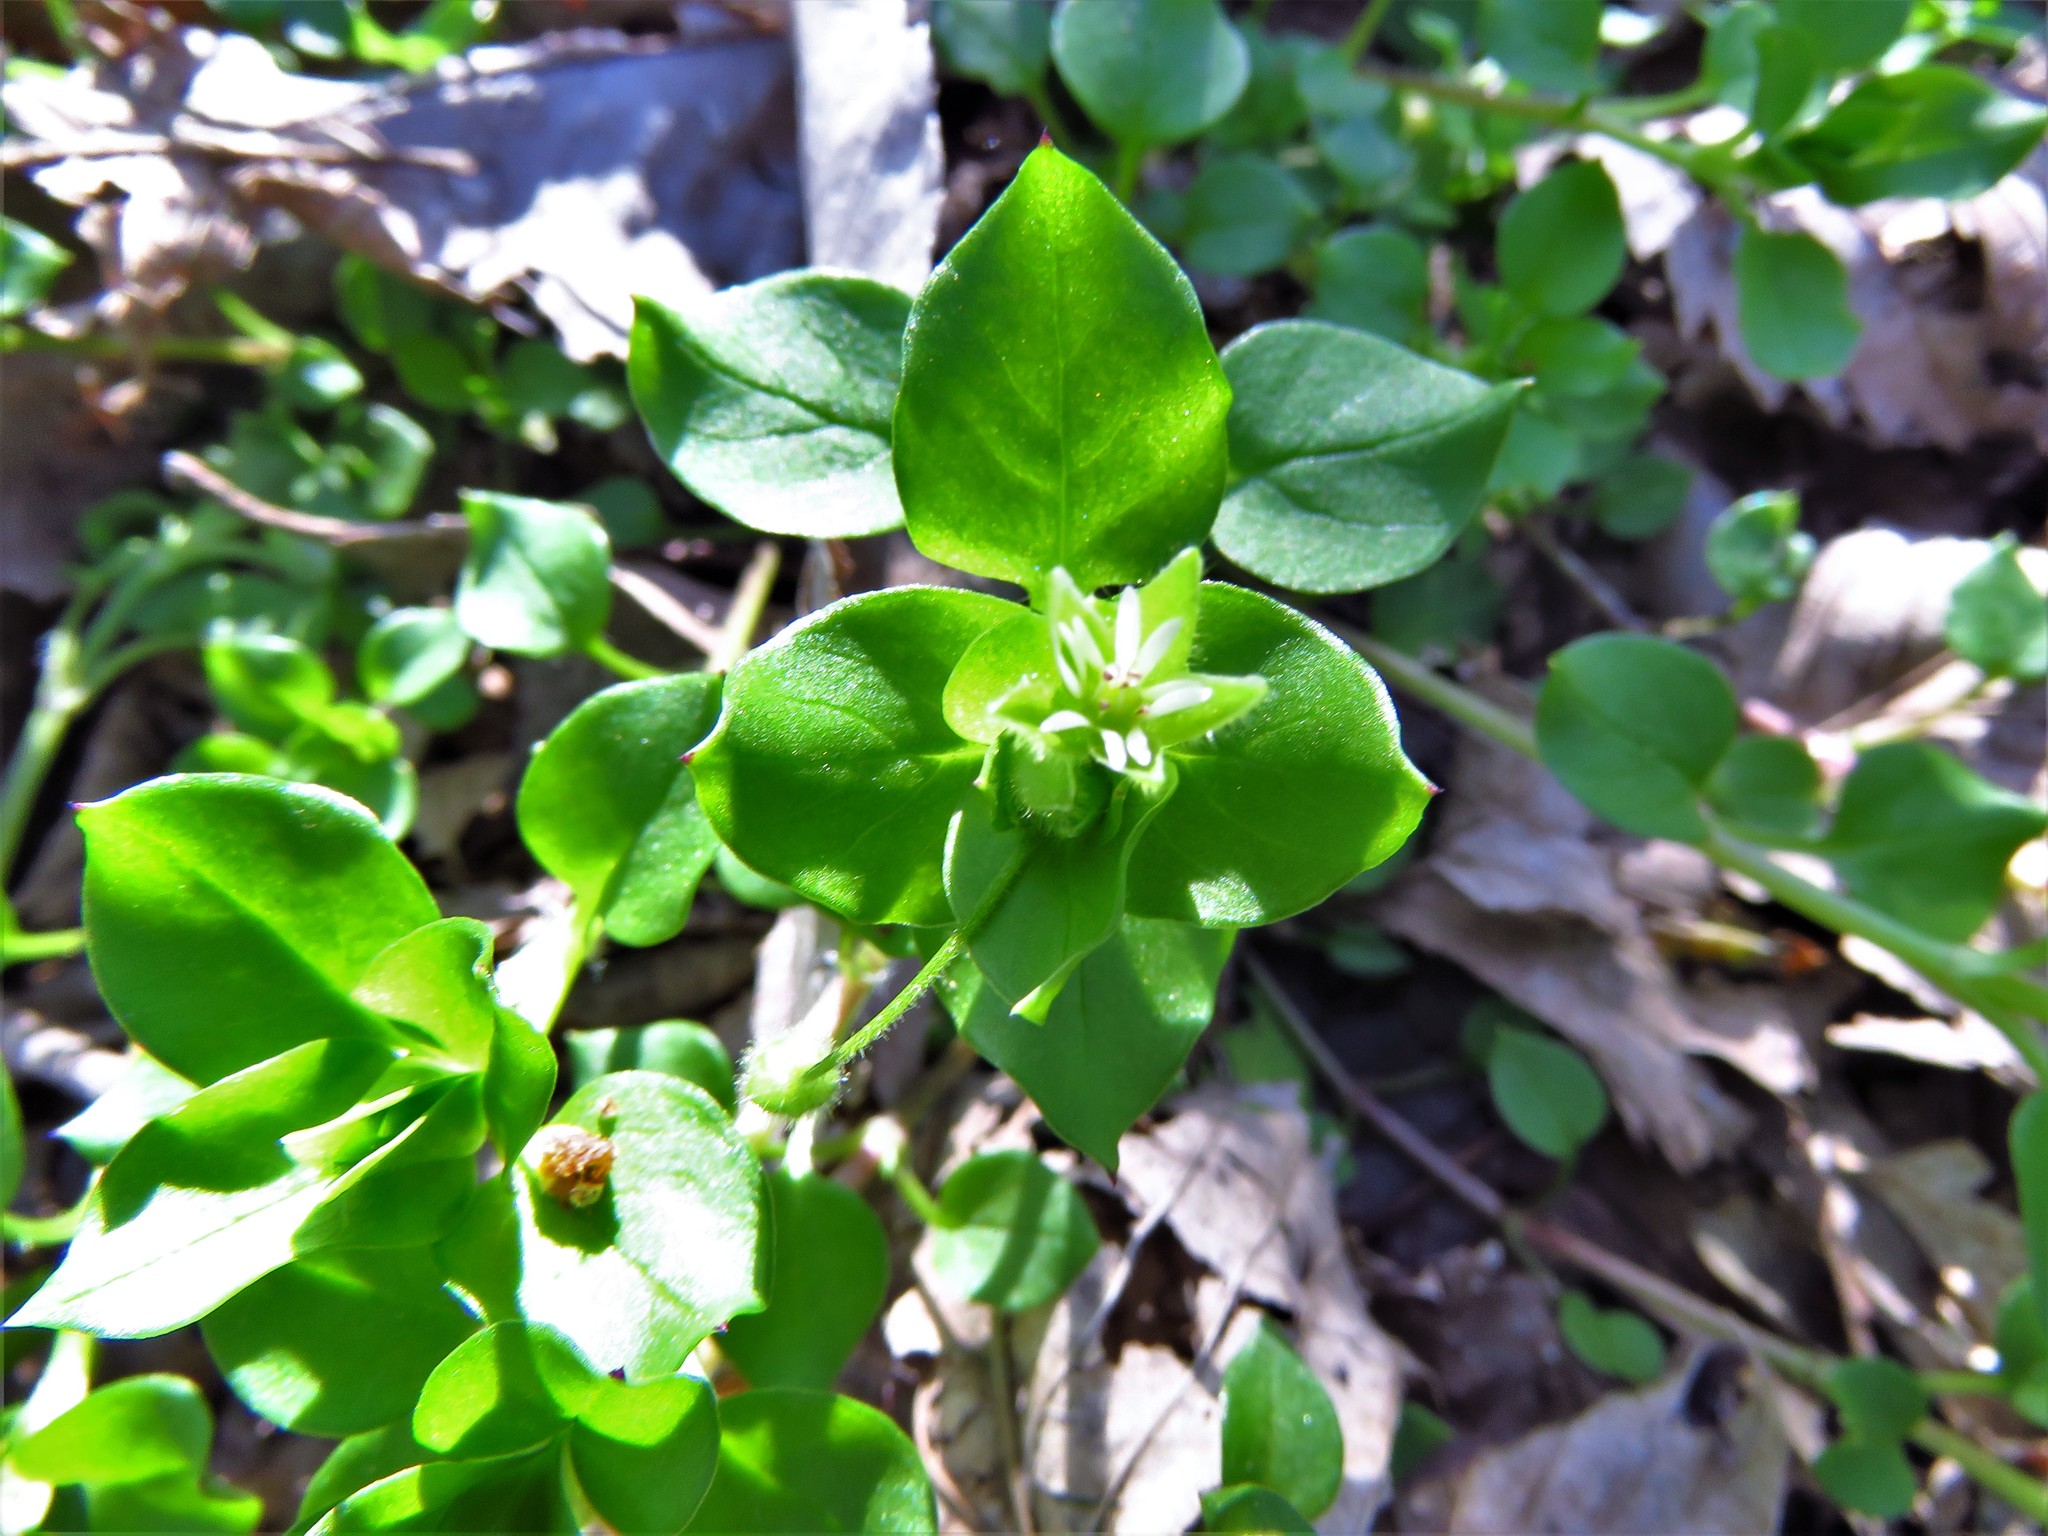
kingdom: Plantae
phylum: Tracheophyta
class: Magnoliopsida
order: Caryophyllales
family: Caryophyllaceae
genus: Stellaria
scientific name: Stellaria media
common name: Common chickweed
